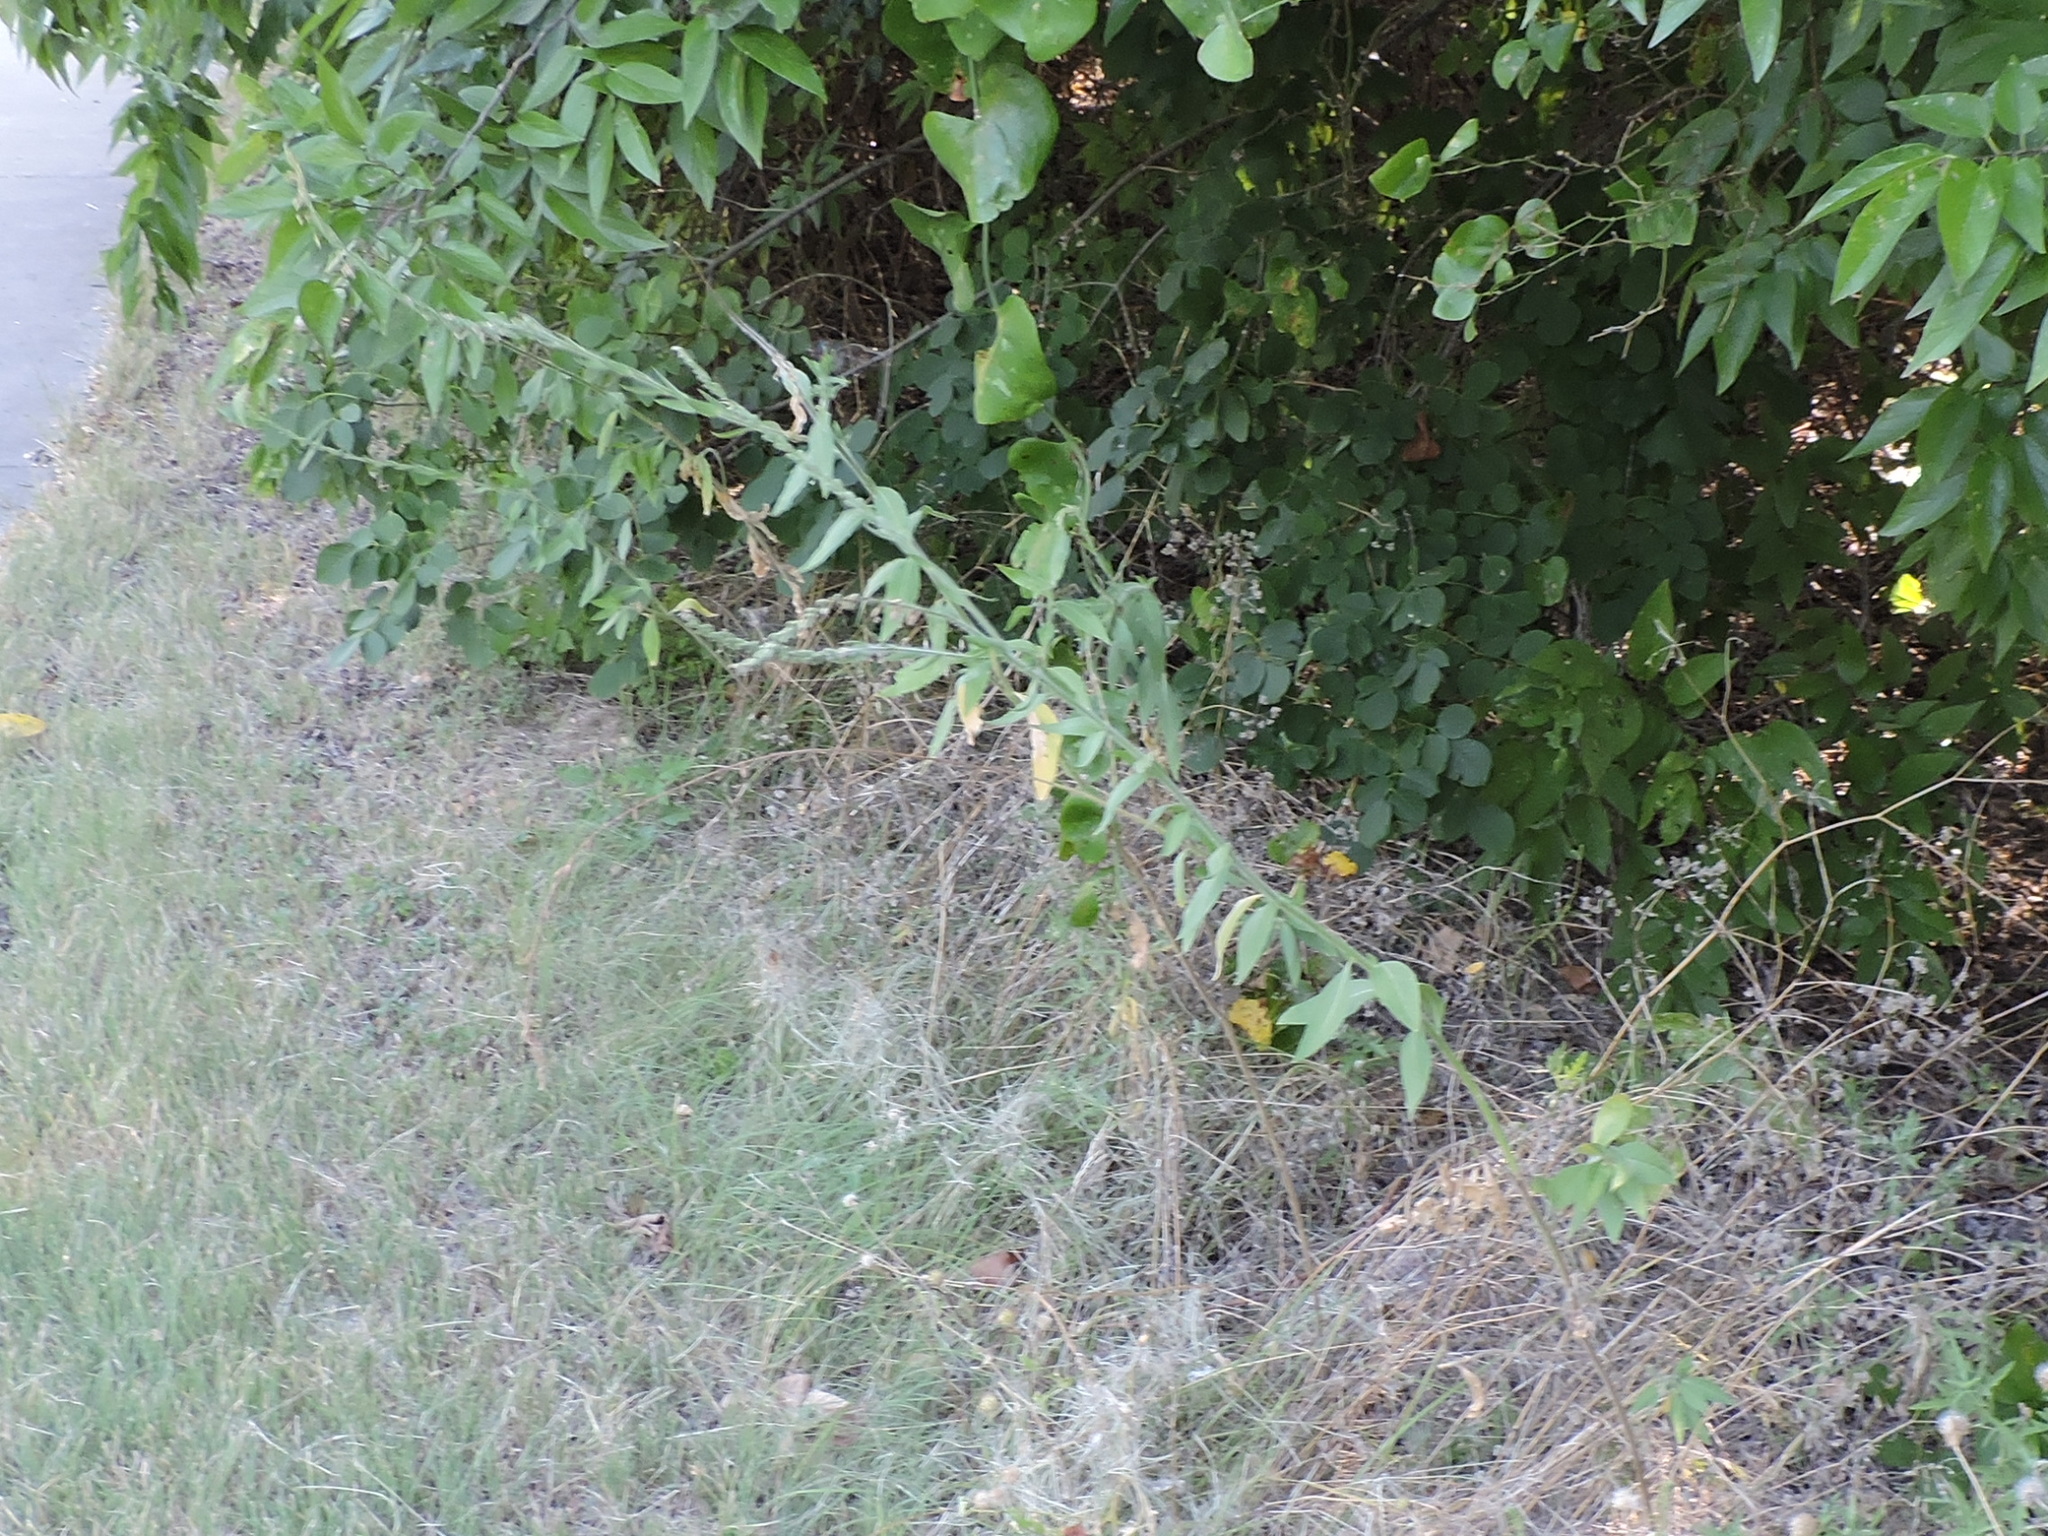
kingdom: Plantae
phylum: Tracheophyta
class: Magnoliopsida
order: Myrtales
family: Onagraceae
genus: Oenothera
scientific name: Oenothera curtiflora
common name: Velvetweed
